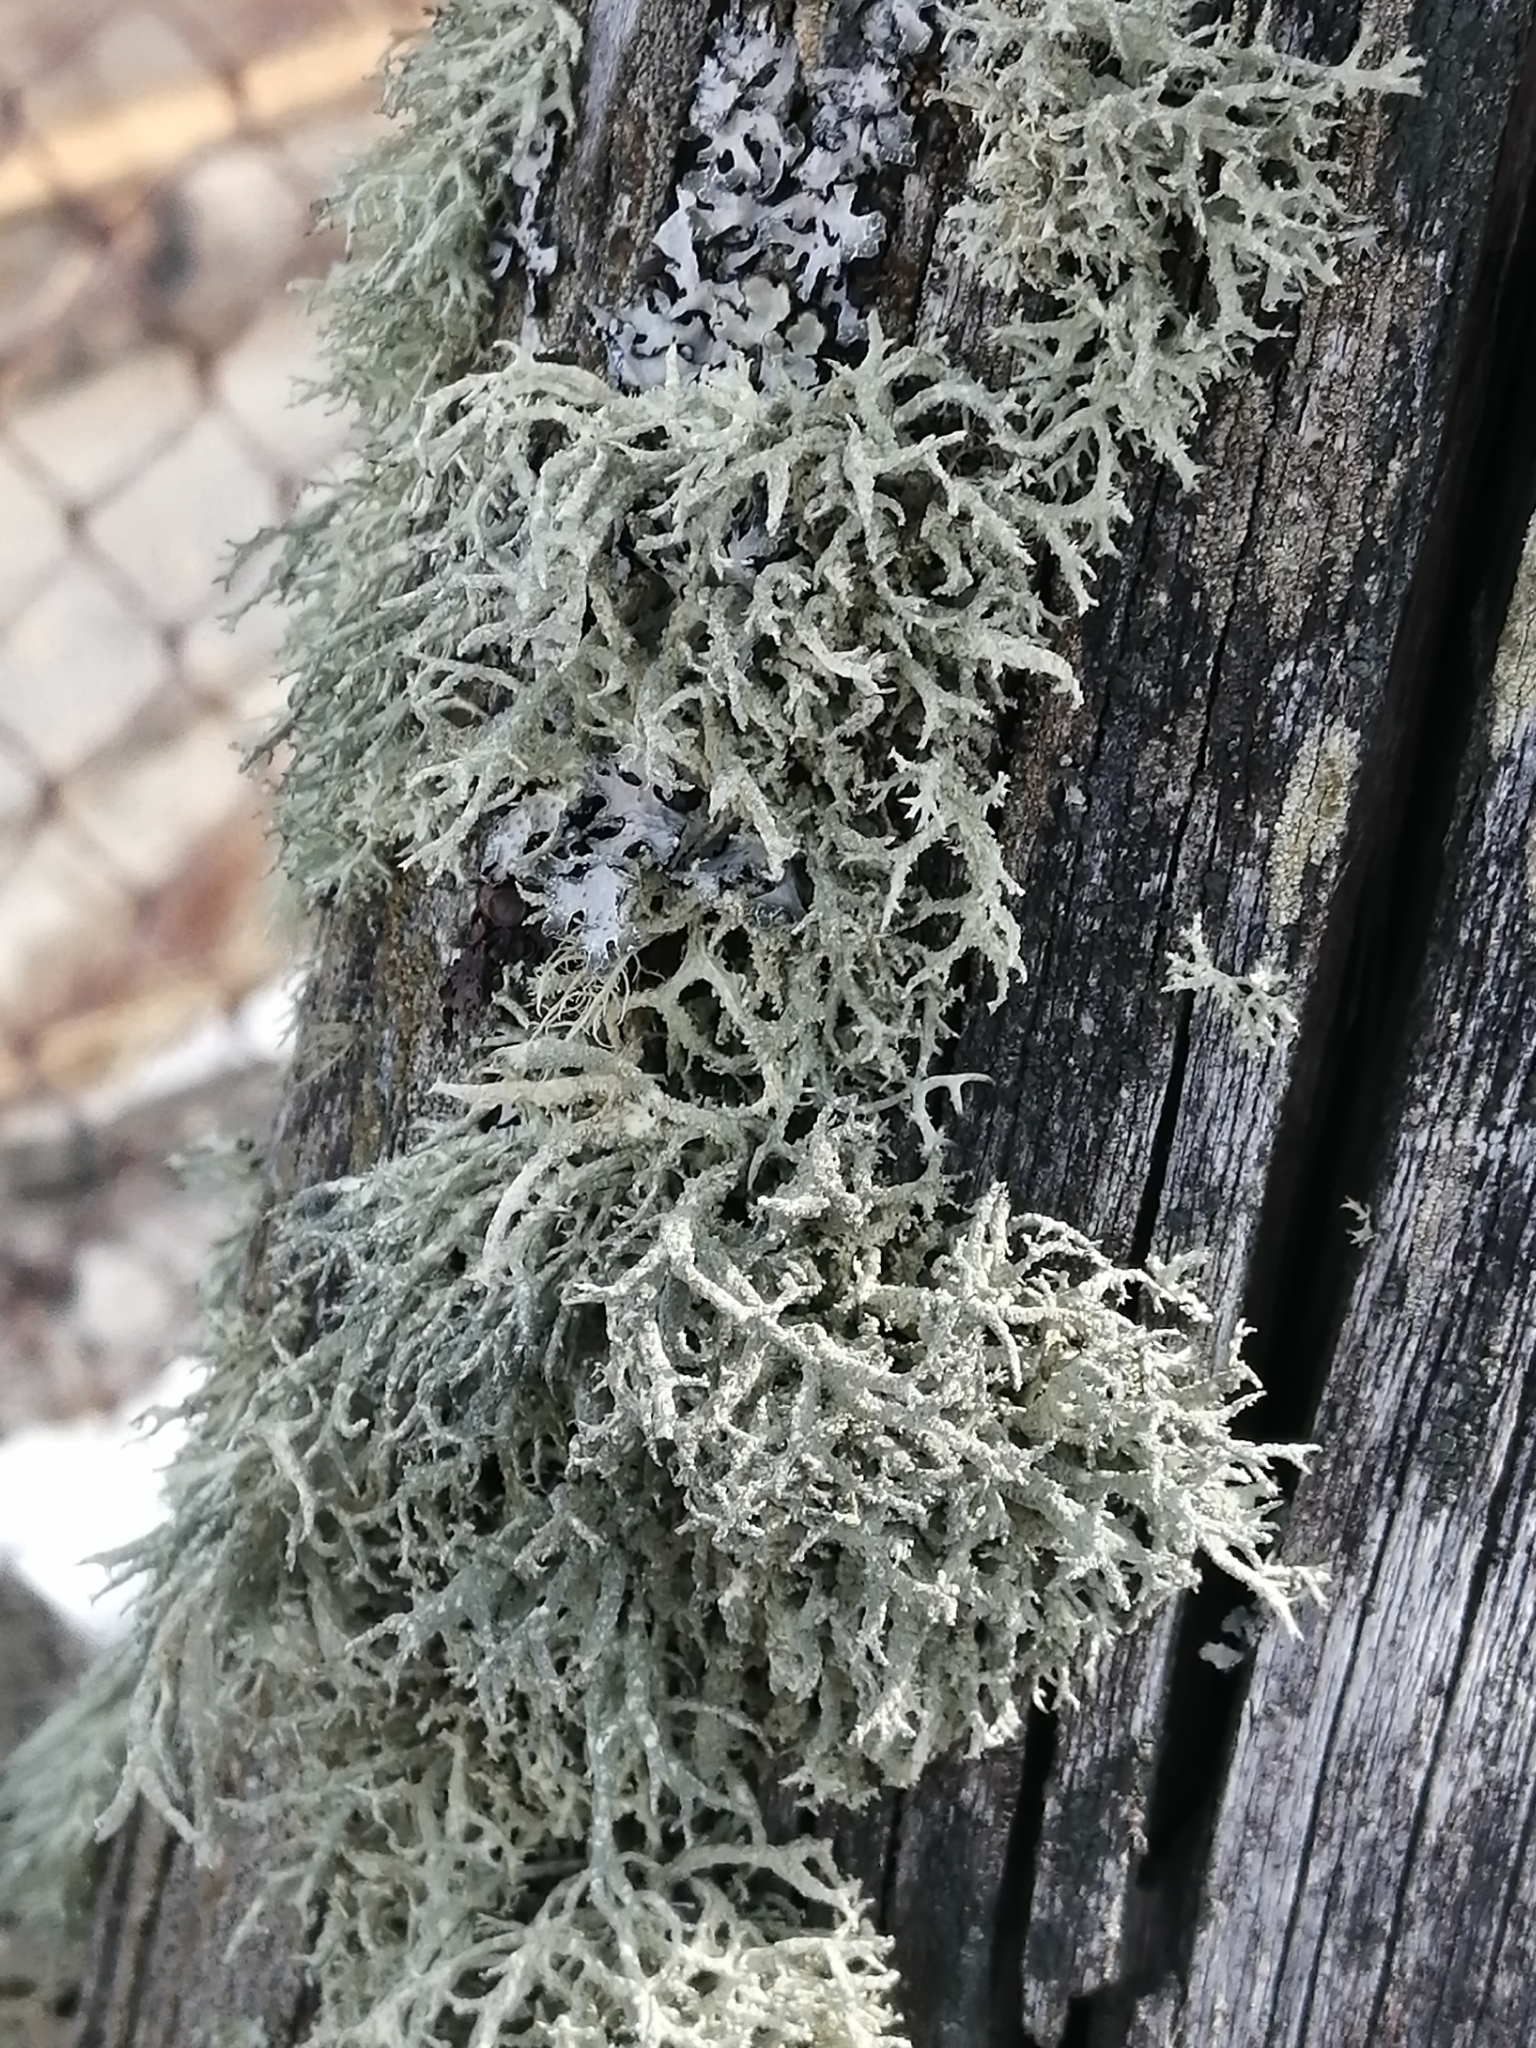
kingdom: Fungi
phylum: Ascomycota
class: Lecanoromycetes
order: Lecanorales
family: Parmeliaceae
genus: Evernia
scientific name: Evernia mesomorpha
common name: Boreal oak moss lichen
